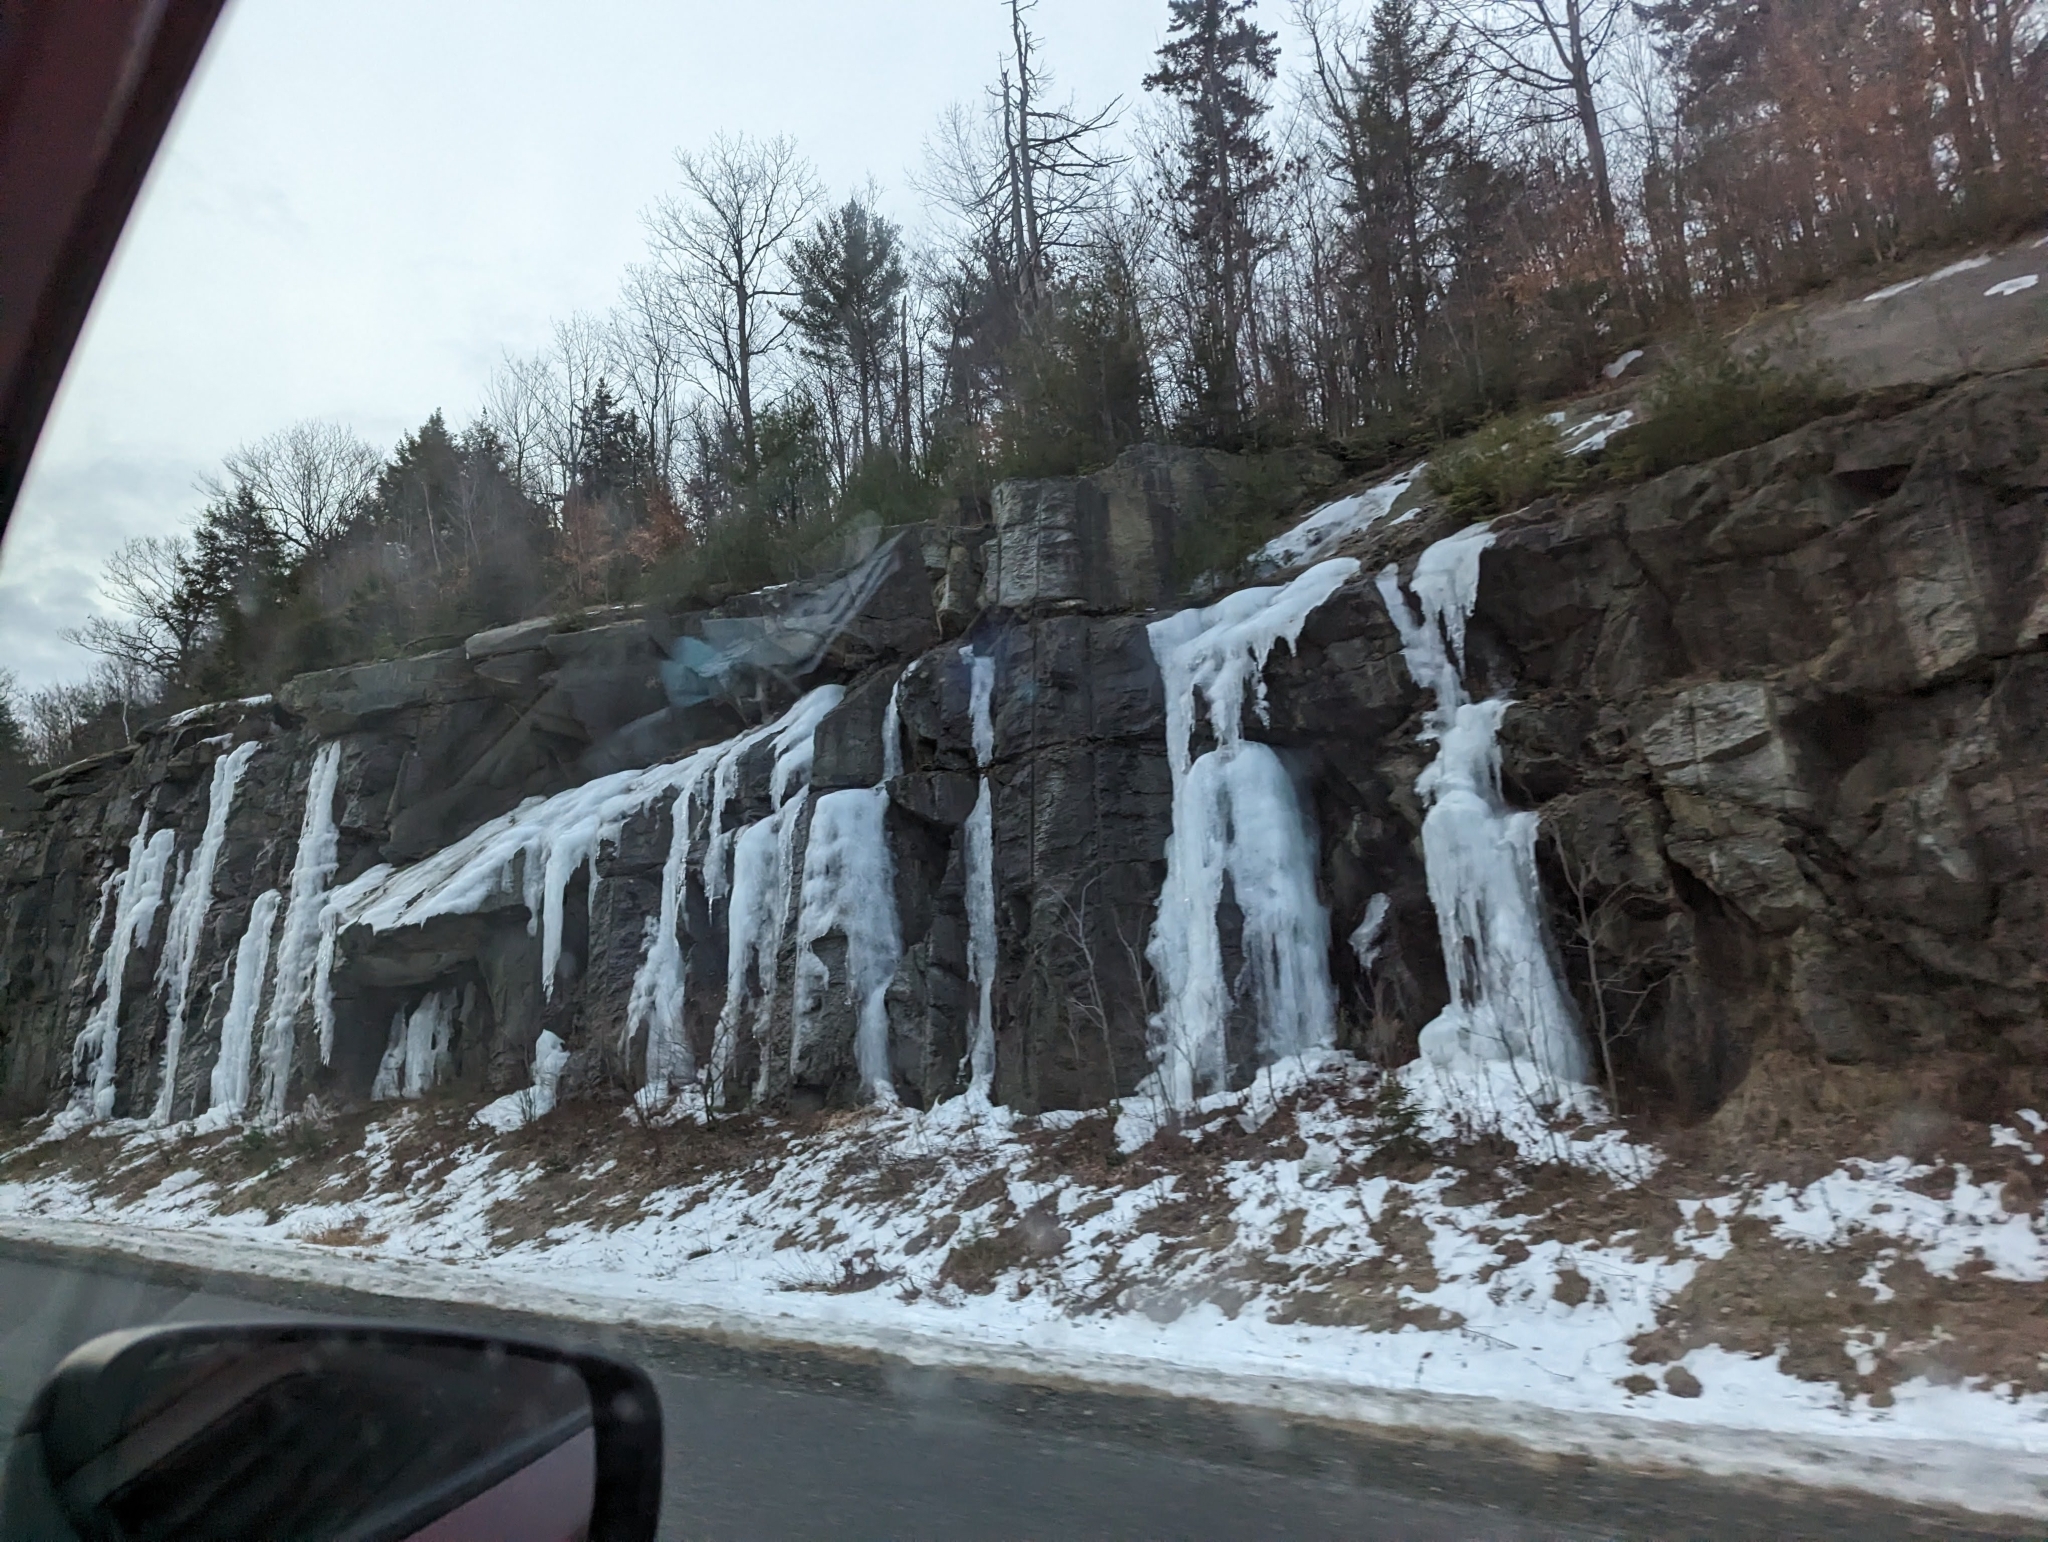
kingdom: Plantae
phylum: Tracheophyta
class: Pinopsida
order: Pinales
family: Pinaceae
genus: Pinus
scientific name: Pinus strobus
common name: Weymouth pine
